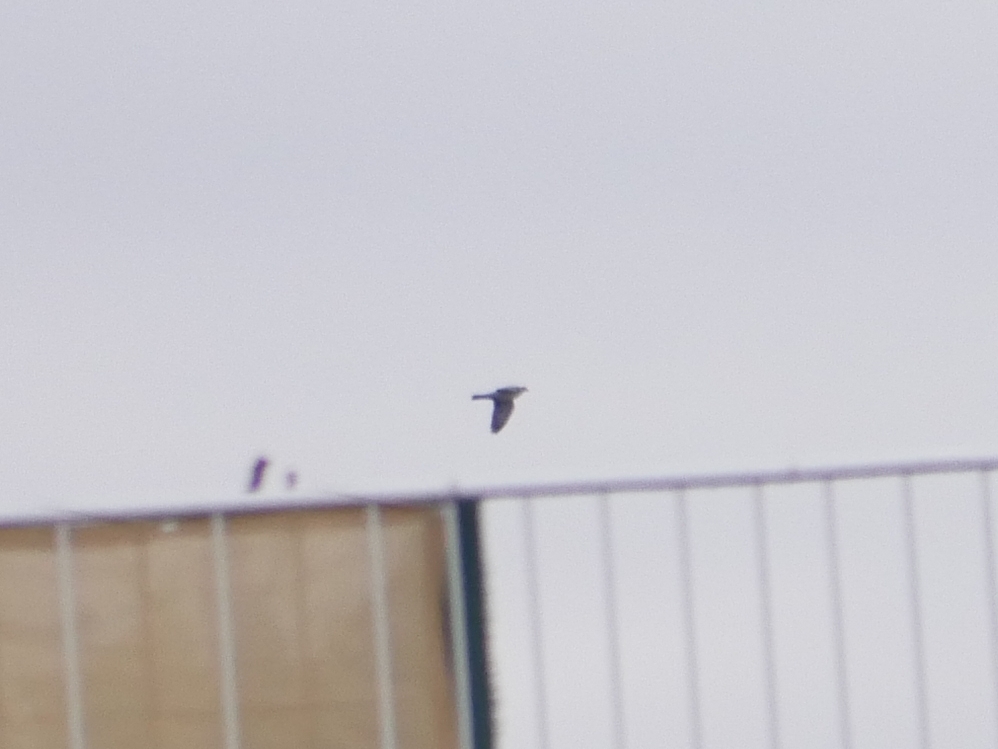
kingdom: Animalia
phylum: Chordata
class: Aves
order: Columbiformes
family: Columbidae
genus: Columba
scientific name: Columba palumbus
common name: Common wood pigeon
